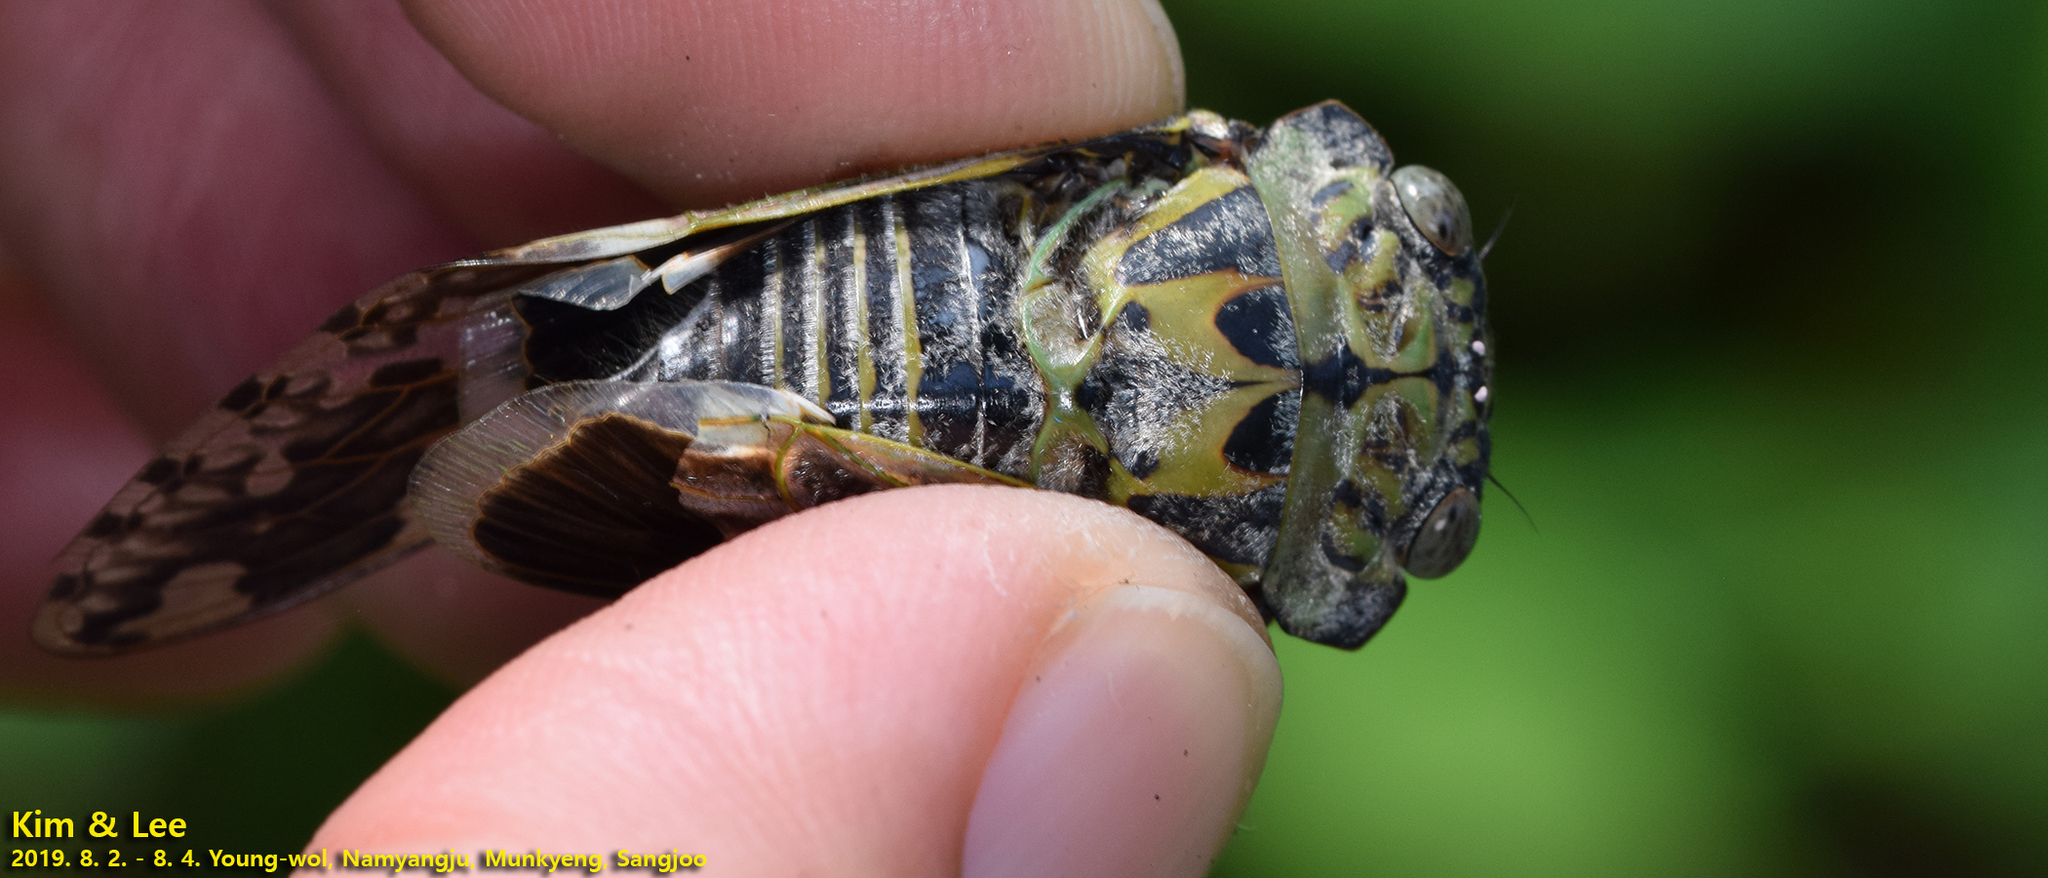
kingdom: Animalia
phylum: Arthropoda
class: Insecta
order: Hemiptera
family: Cicadidae
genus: Platypleura
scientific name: Platypleura kaempferi
